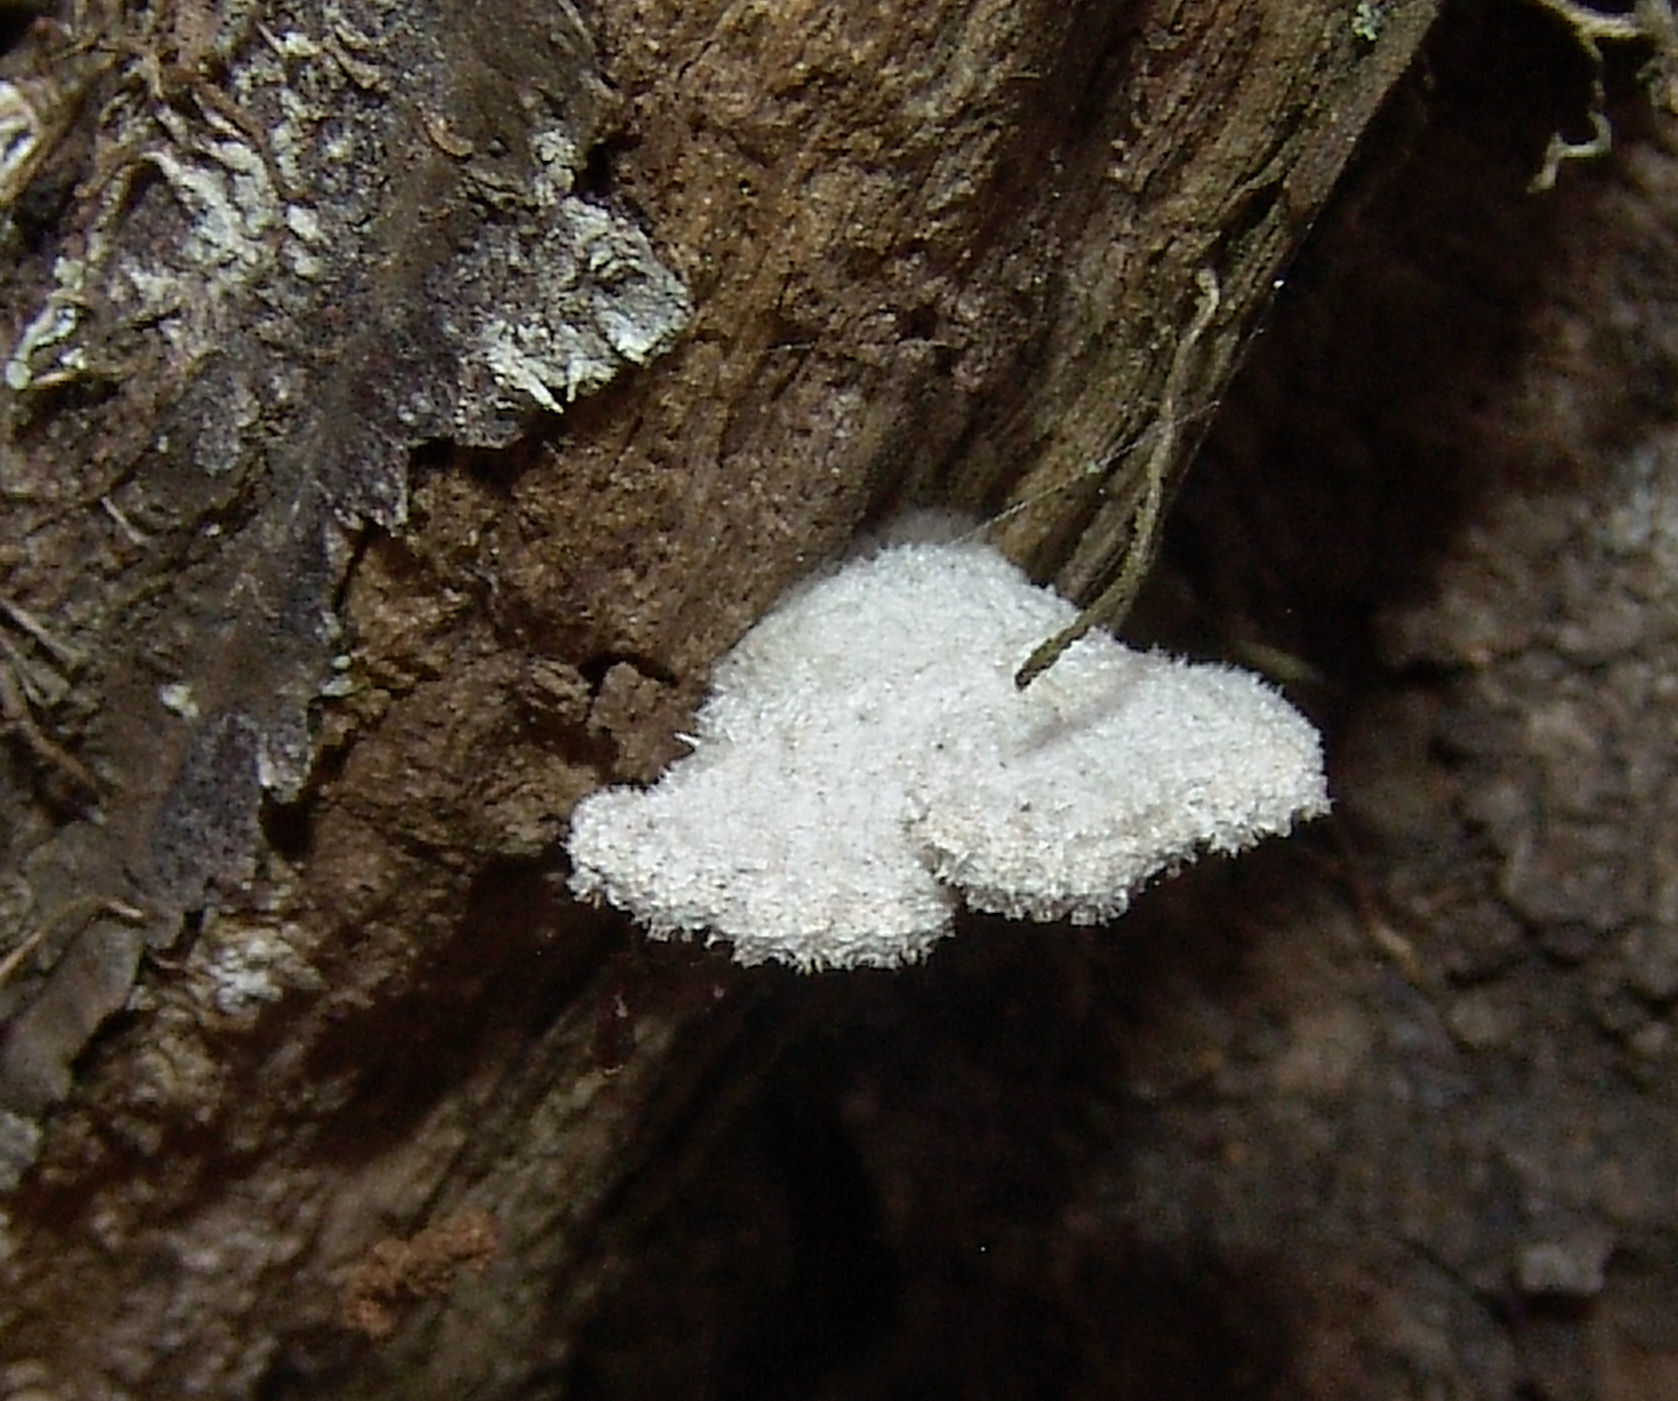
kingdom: Fungi
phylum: Basidiomycota
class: Agaricomycetes
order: Agaricales
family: Schizophyllaceae
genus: Schizophyllum
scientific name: Schizophyllum commune
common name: Common porecrust
